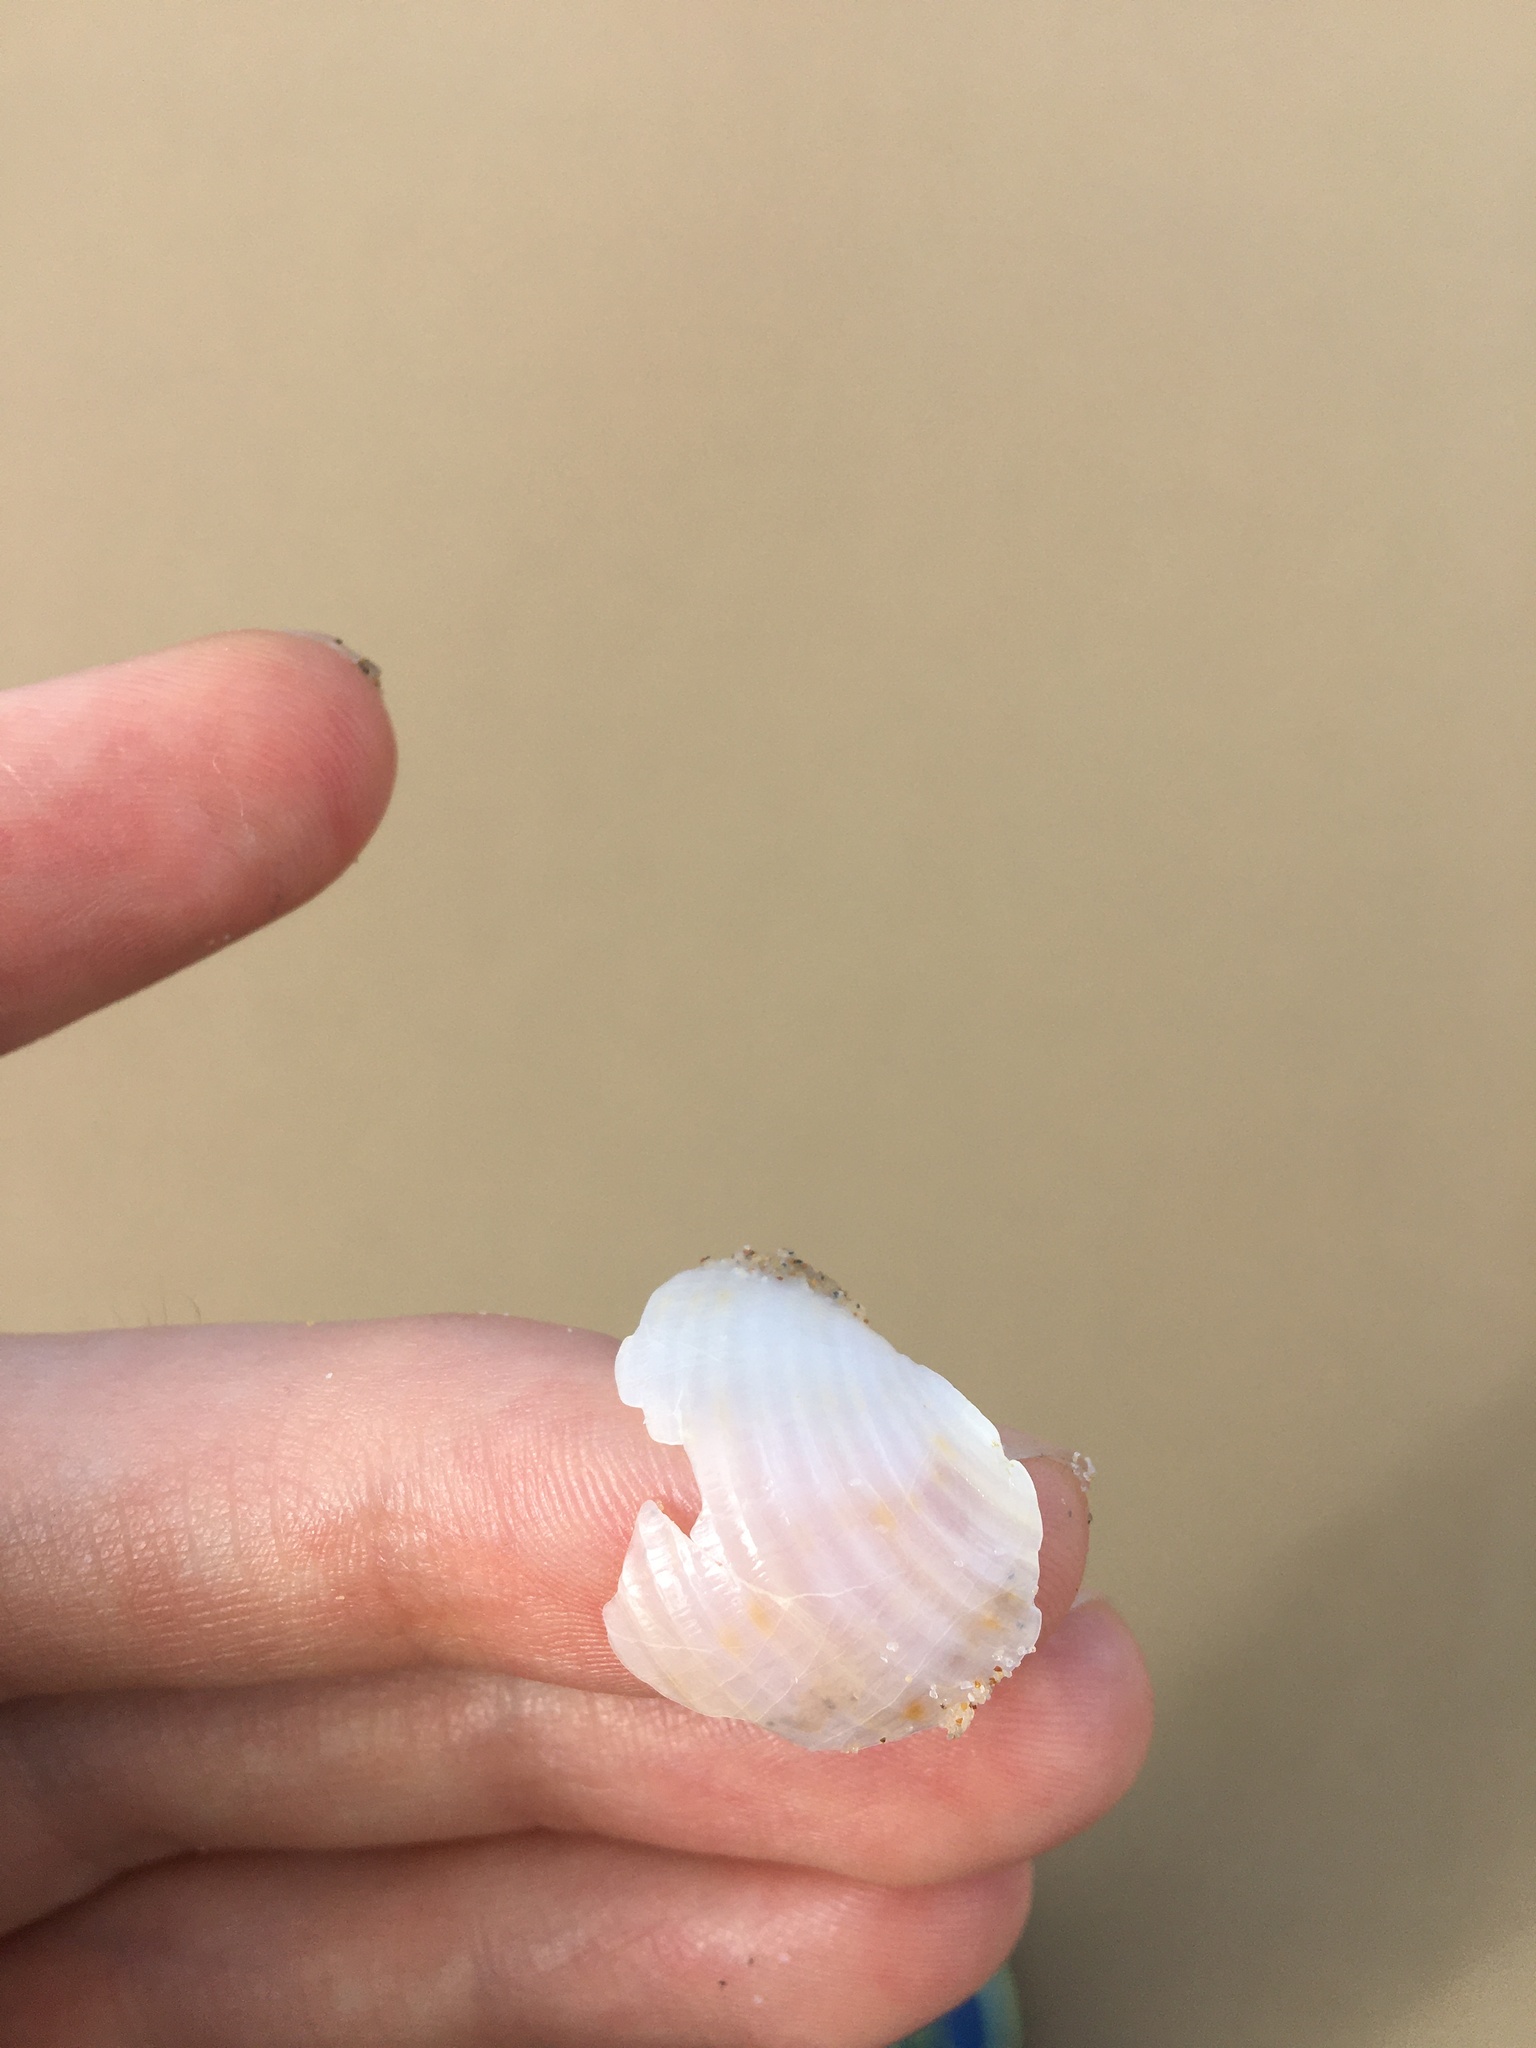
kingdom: Animalia
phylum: Mollusca
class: Gastropoda
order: Littorinimorpha
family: Tonnidae
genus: Tonna
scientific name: Tonna tankervillii
